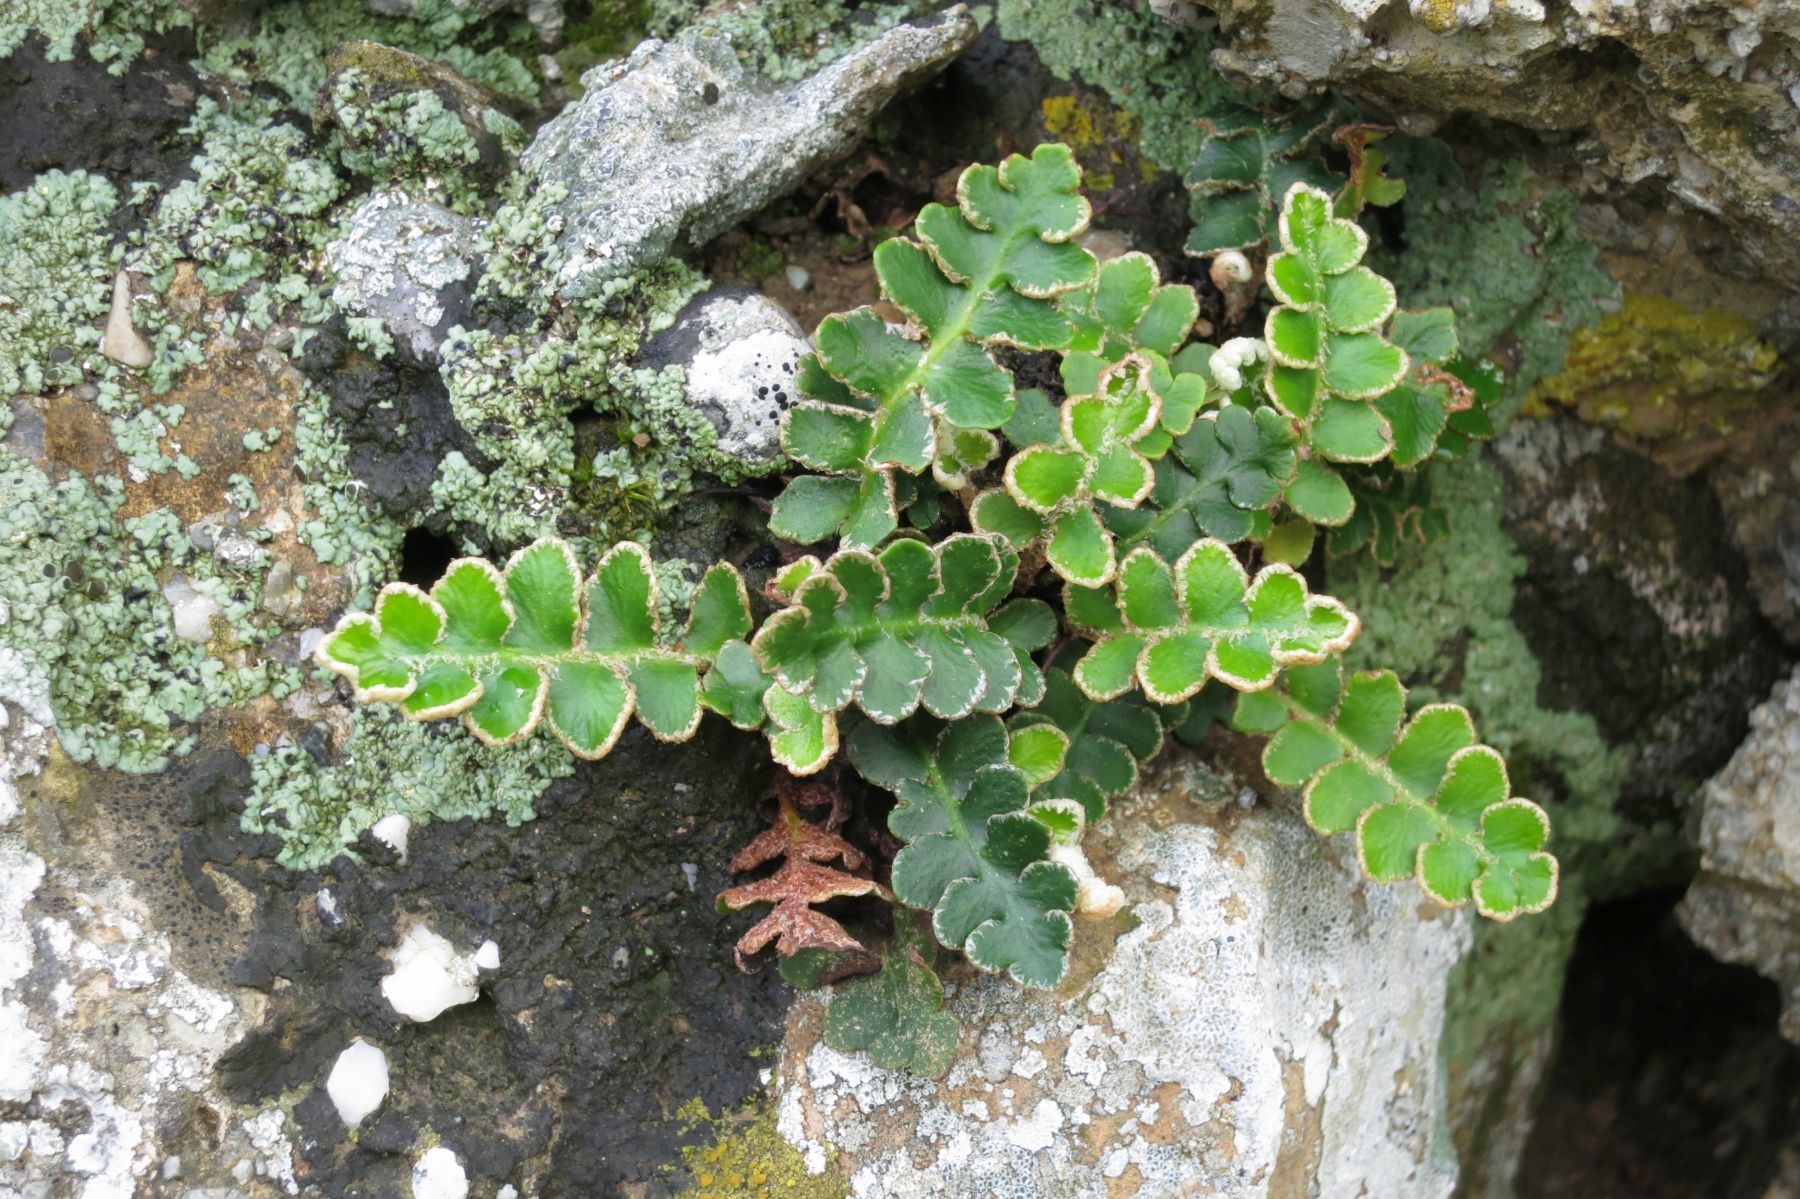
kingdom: Plantae
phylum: Tracheophyta
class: Polypodiopsida
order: Polypodiales
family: Aspleniaceae
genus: Asplenium
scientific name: Asplenium ceterach
